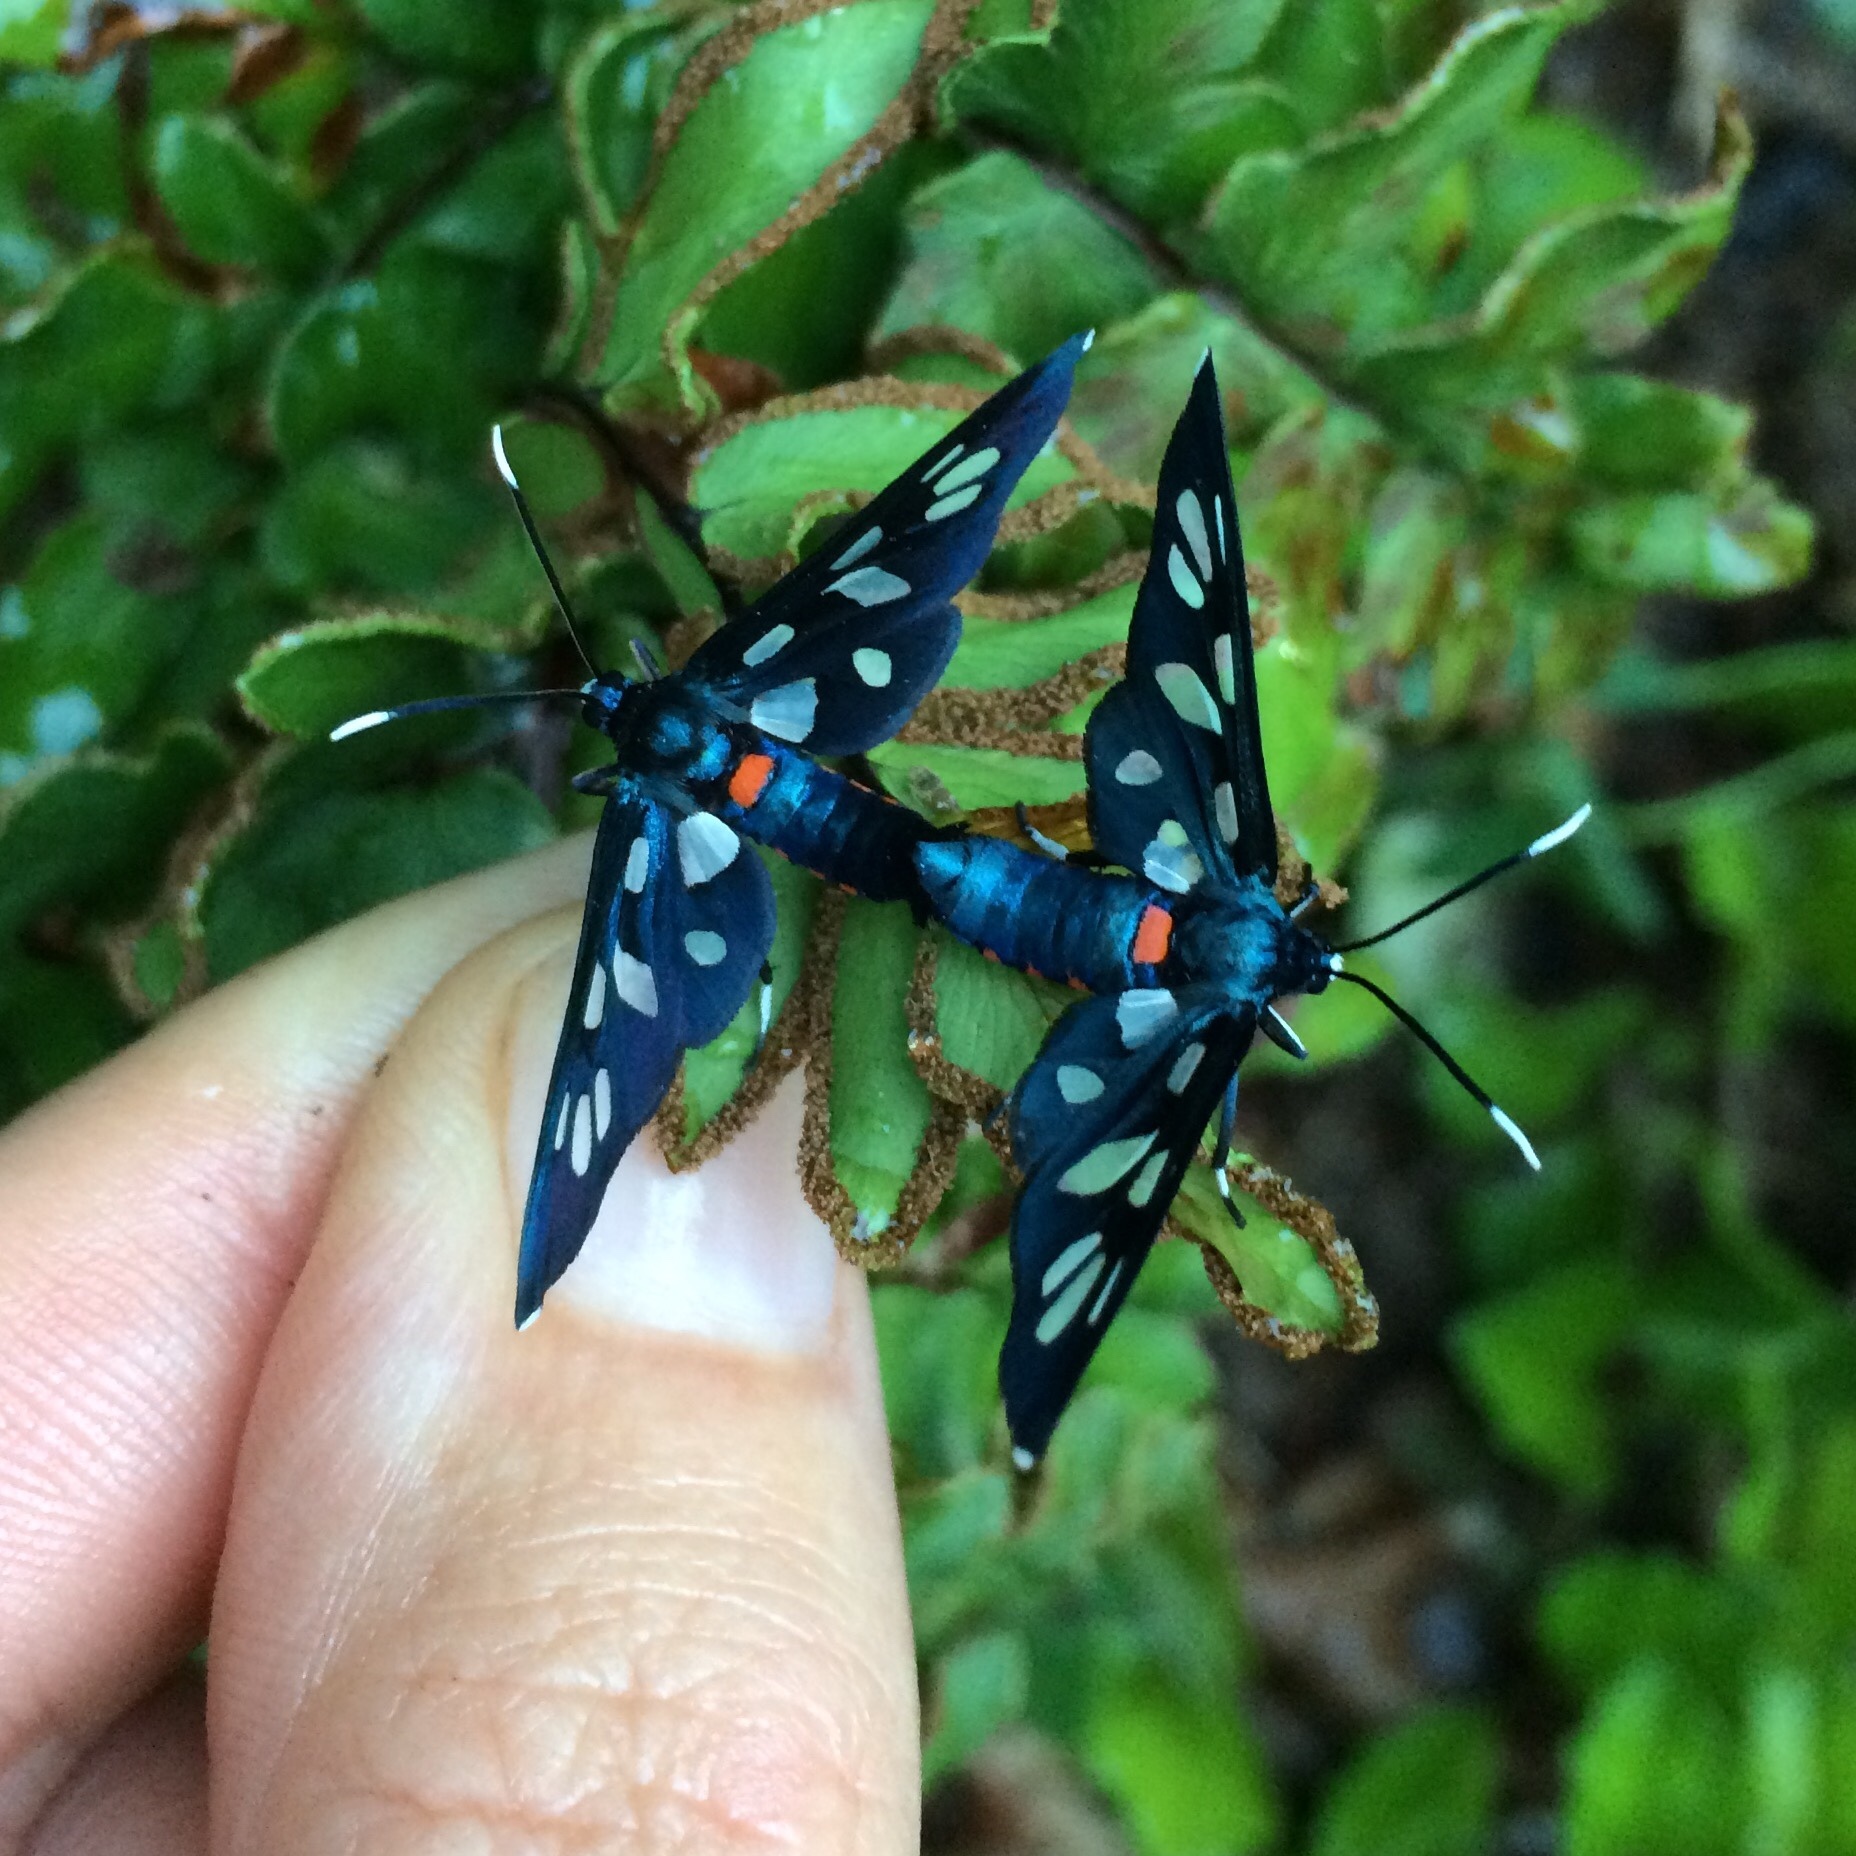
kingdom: Animalia
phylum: Arthropoda
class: Insecta
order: Lepidoptera
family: Erebidae
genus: Amata
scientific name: Amata kuhlweini
